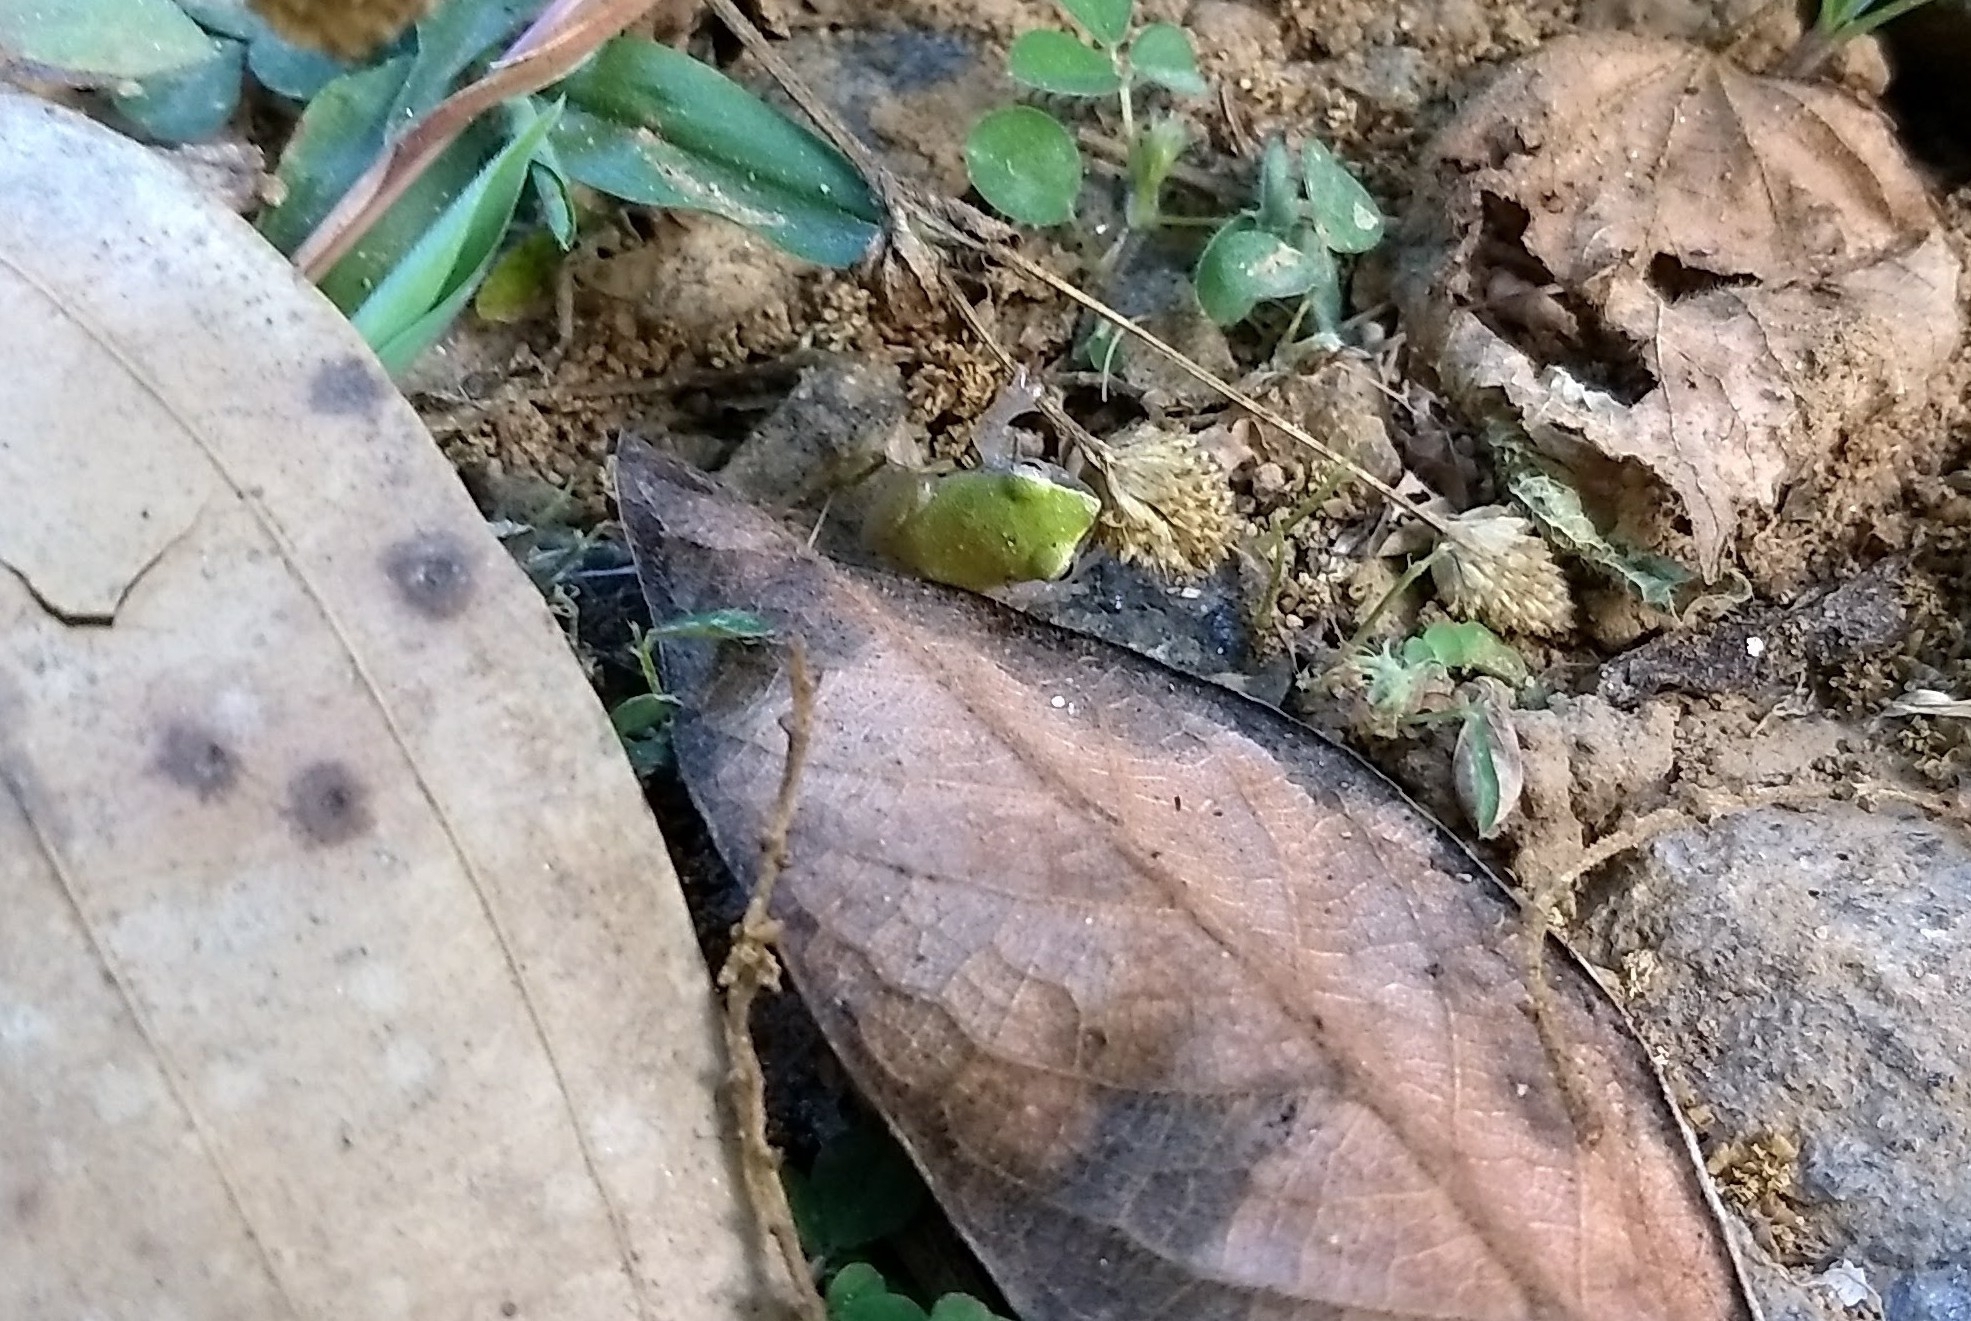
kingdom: Animalia
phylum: Chordata
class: Amphibia
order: Anura
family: Rhacophoridae
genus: Raorchestes
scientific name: Raorchestes akroparallagi
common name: Variable bush frog
